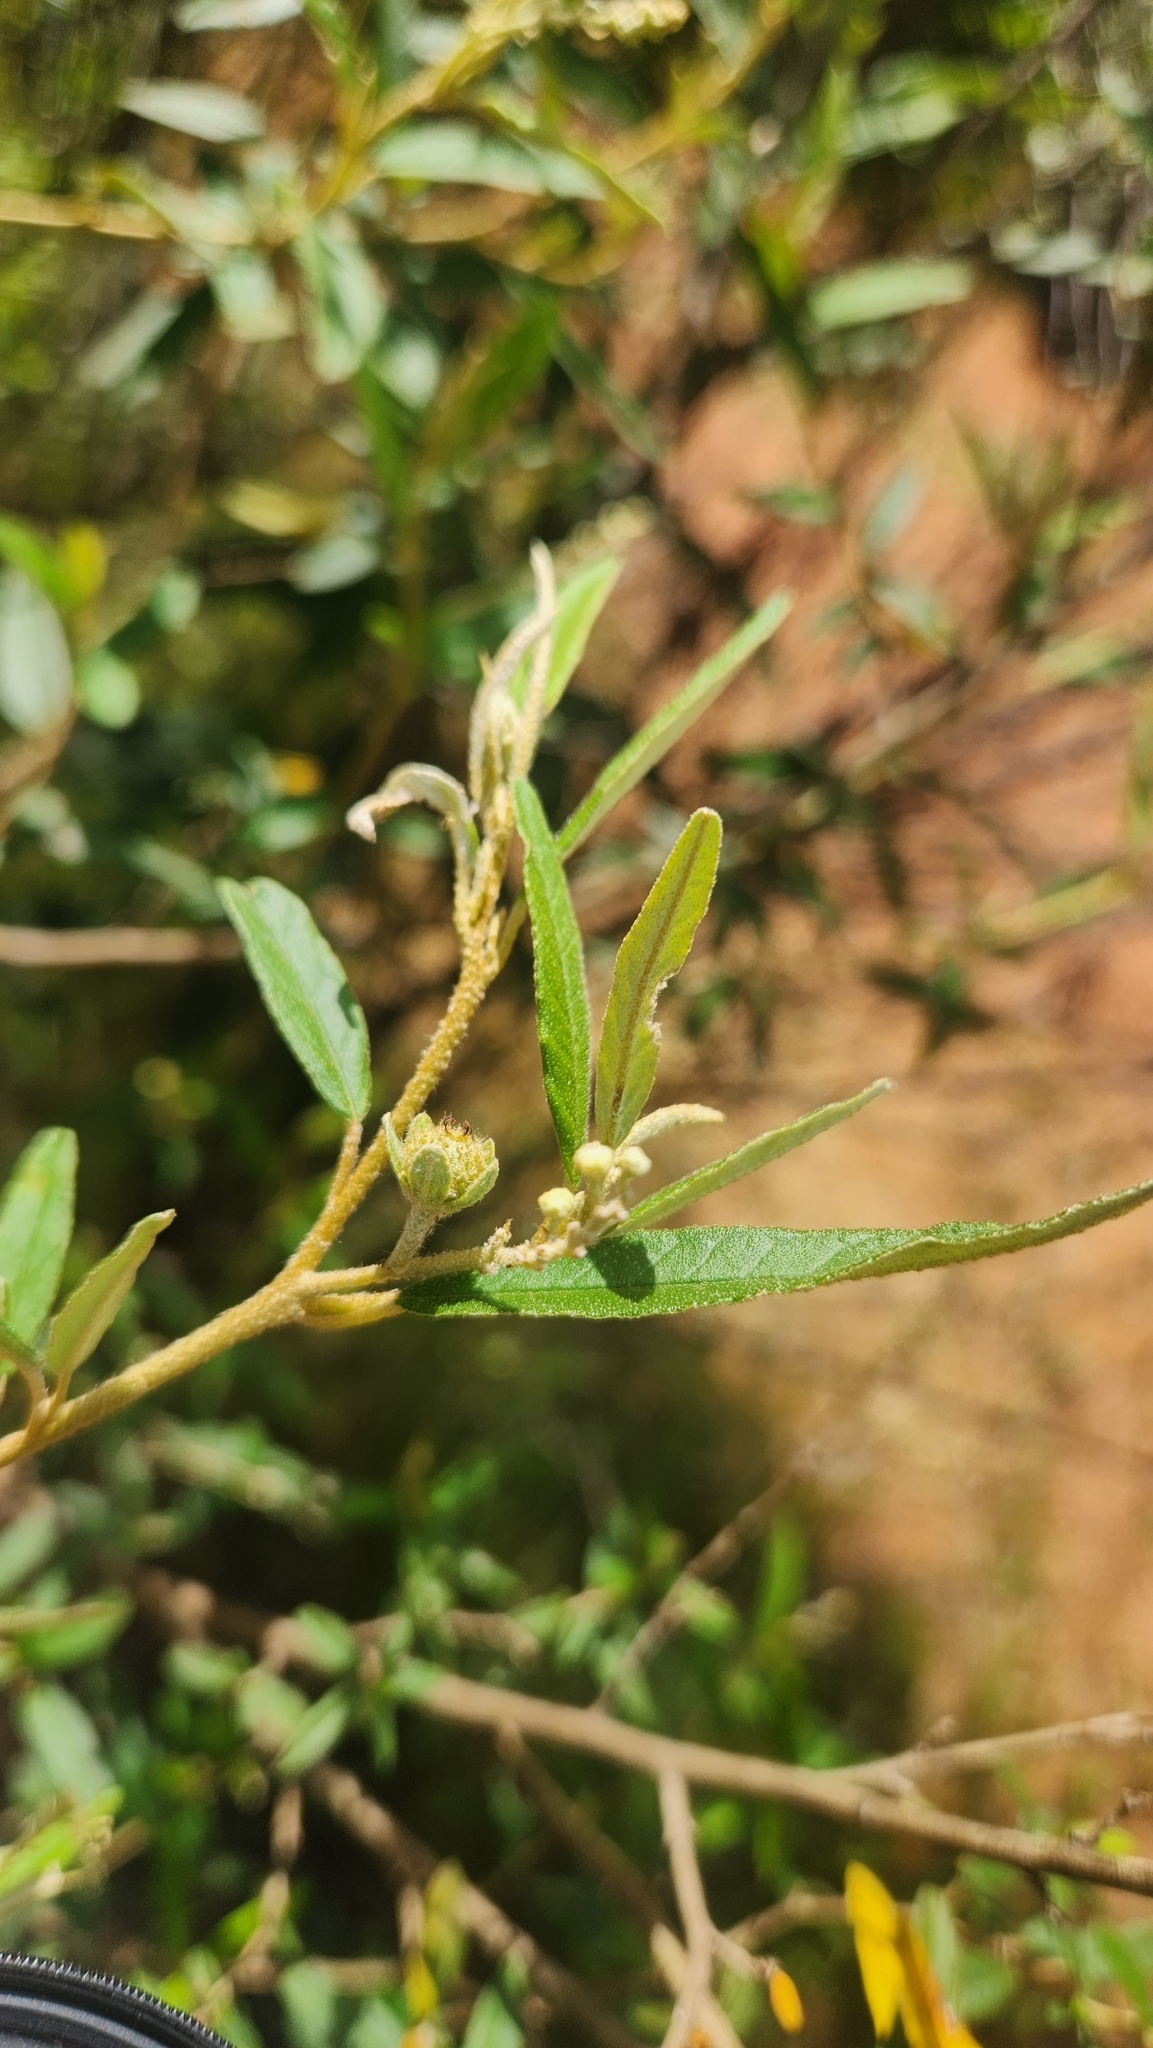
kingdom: Plantae
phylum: Tracheophyta
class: Magnoliopsida
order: Malpighiales
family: Euphorbiaceae
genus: Croton
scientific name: Croton ceanothifolius
